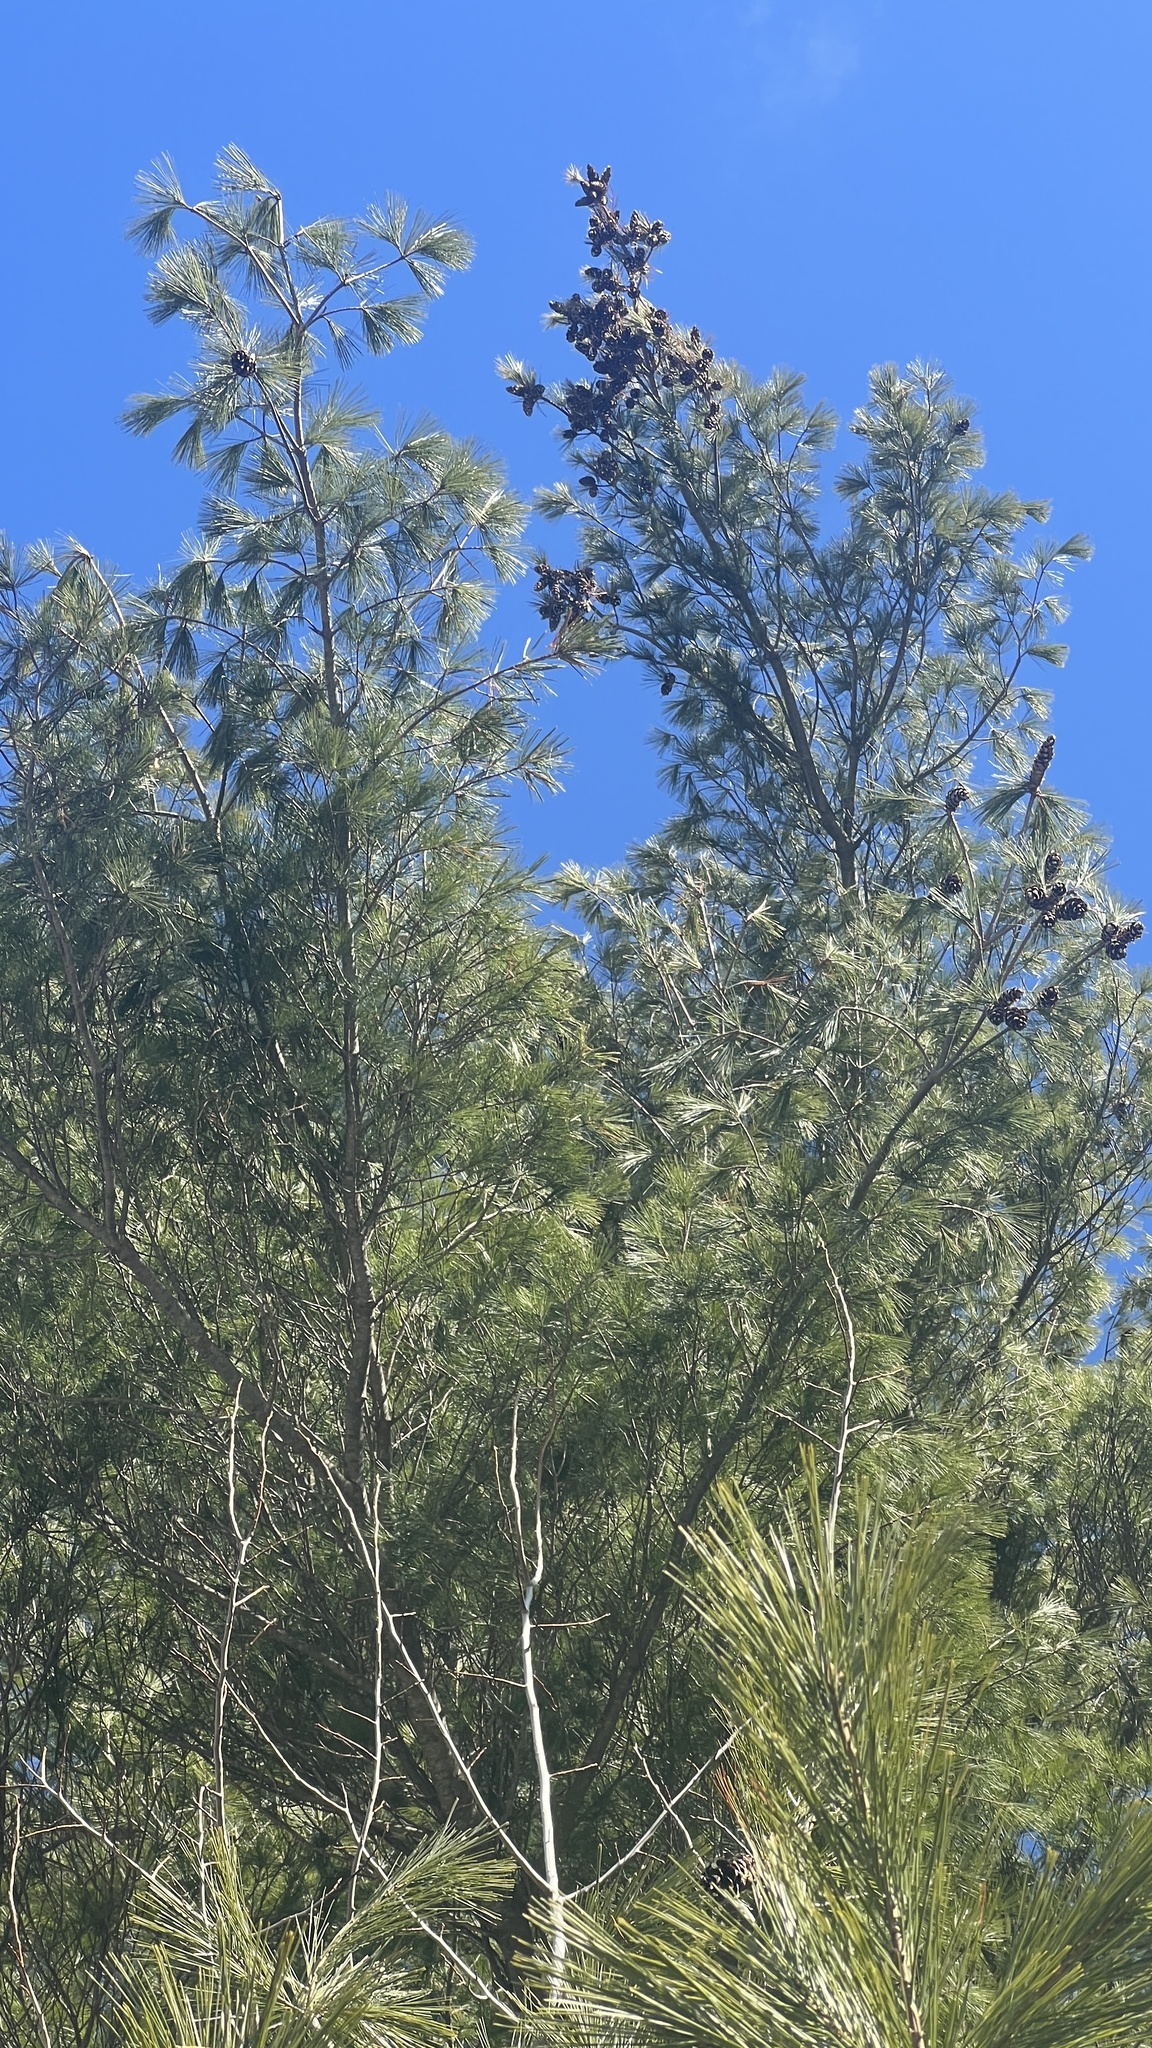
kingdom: Plantae
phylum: Tracheophyta
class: Pinopsida
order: Pinales
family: Pinaceae
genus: Pinus
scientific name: Pinus strobus
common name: Weymouth pine
